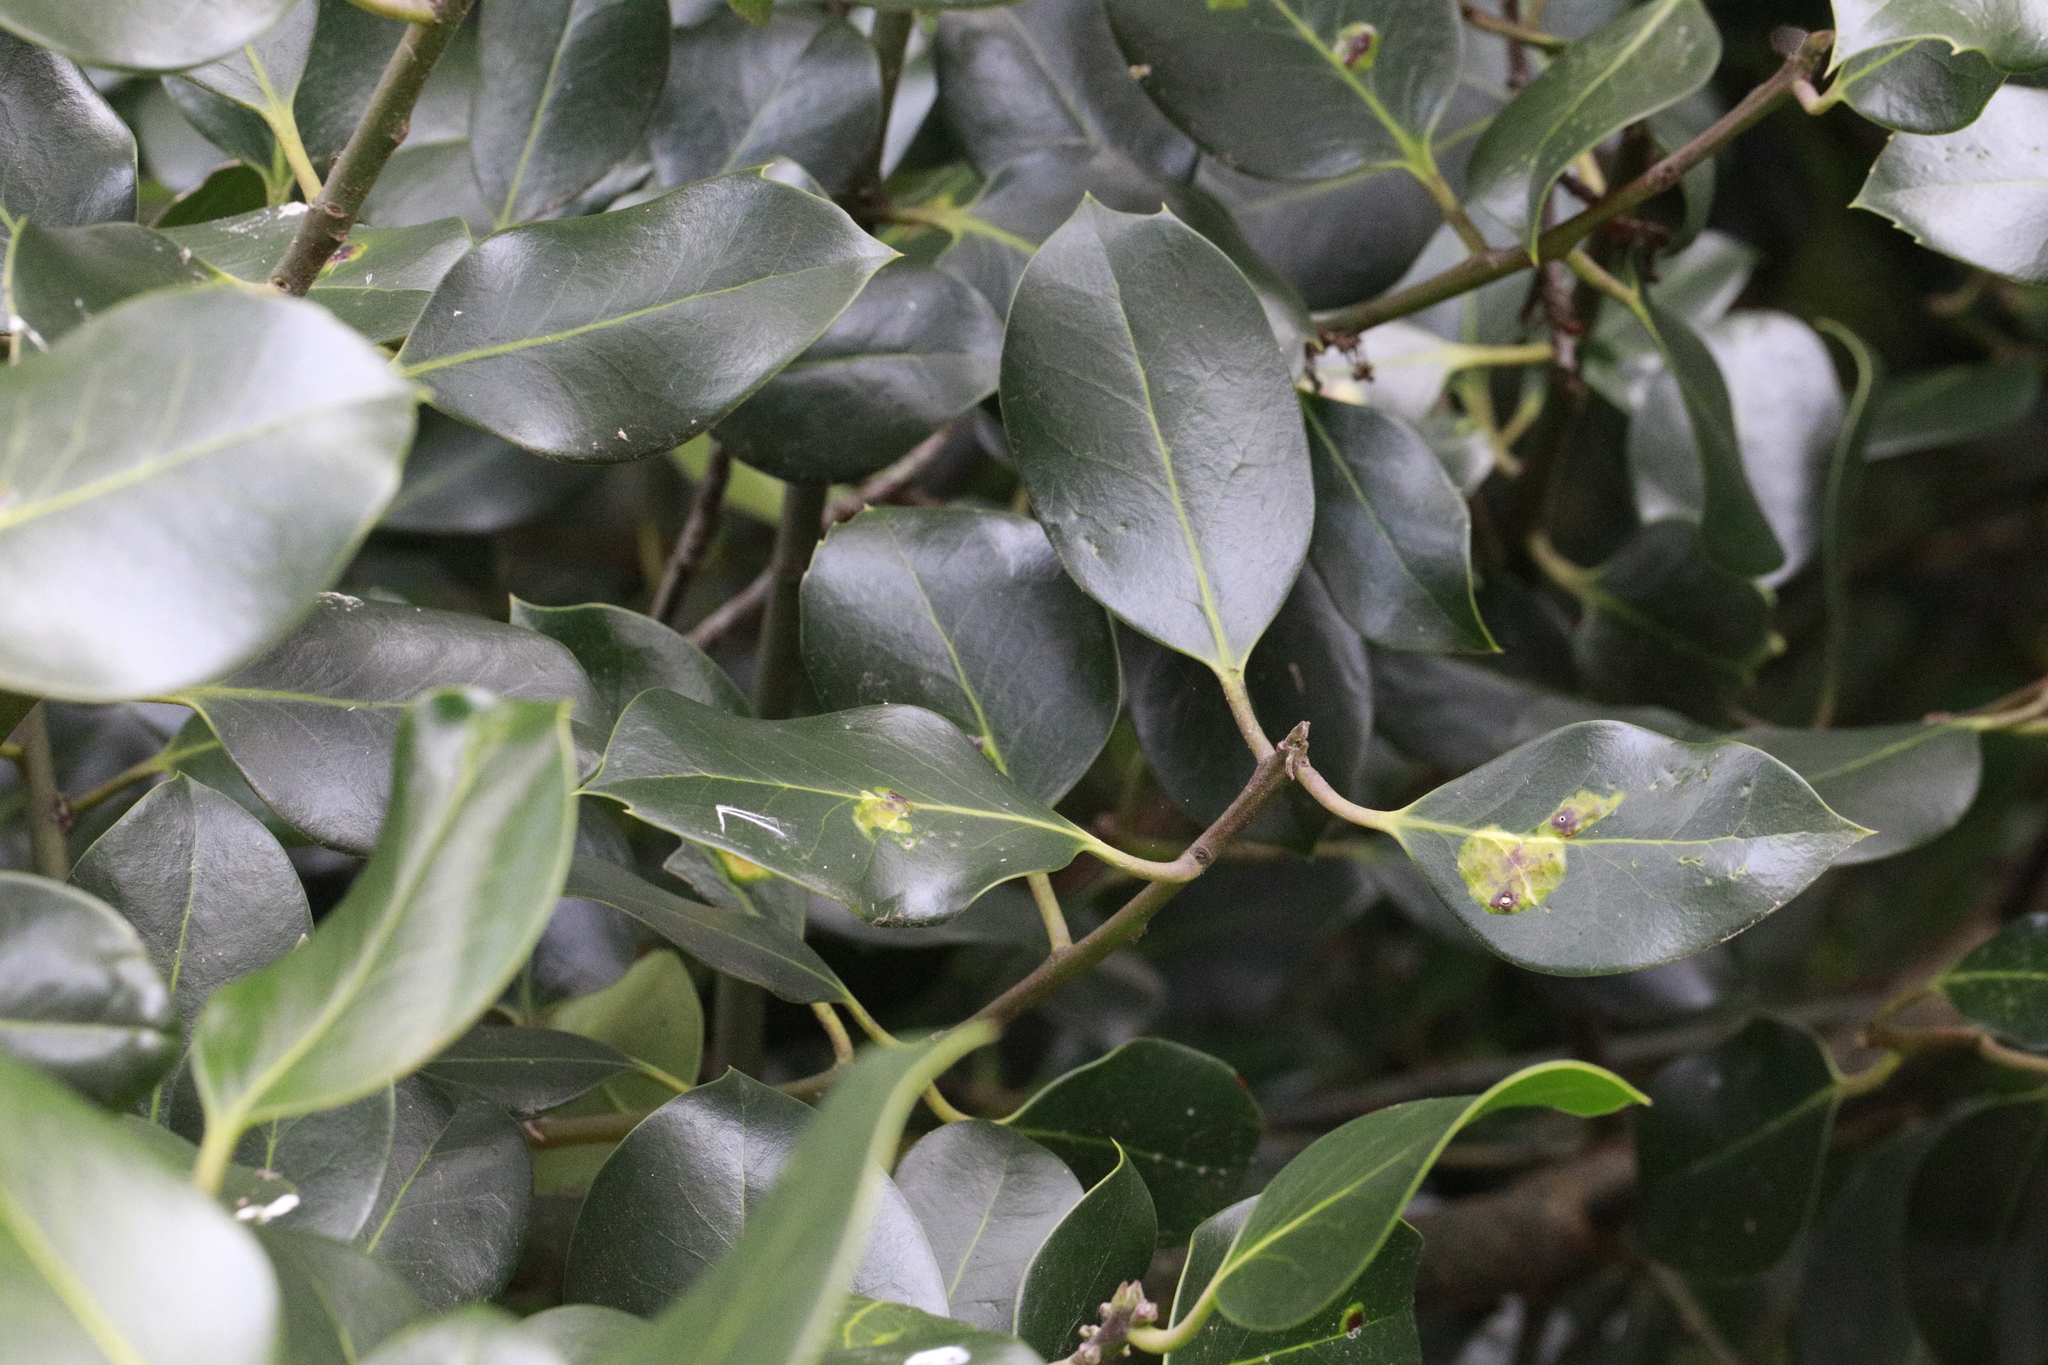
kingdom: Animalia
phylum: Arthropoda
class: Insecta
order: Diptera
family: Agromyzidae
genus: Phytomyza
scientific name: Phytomyza ilicis
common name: Holly leafminer
